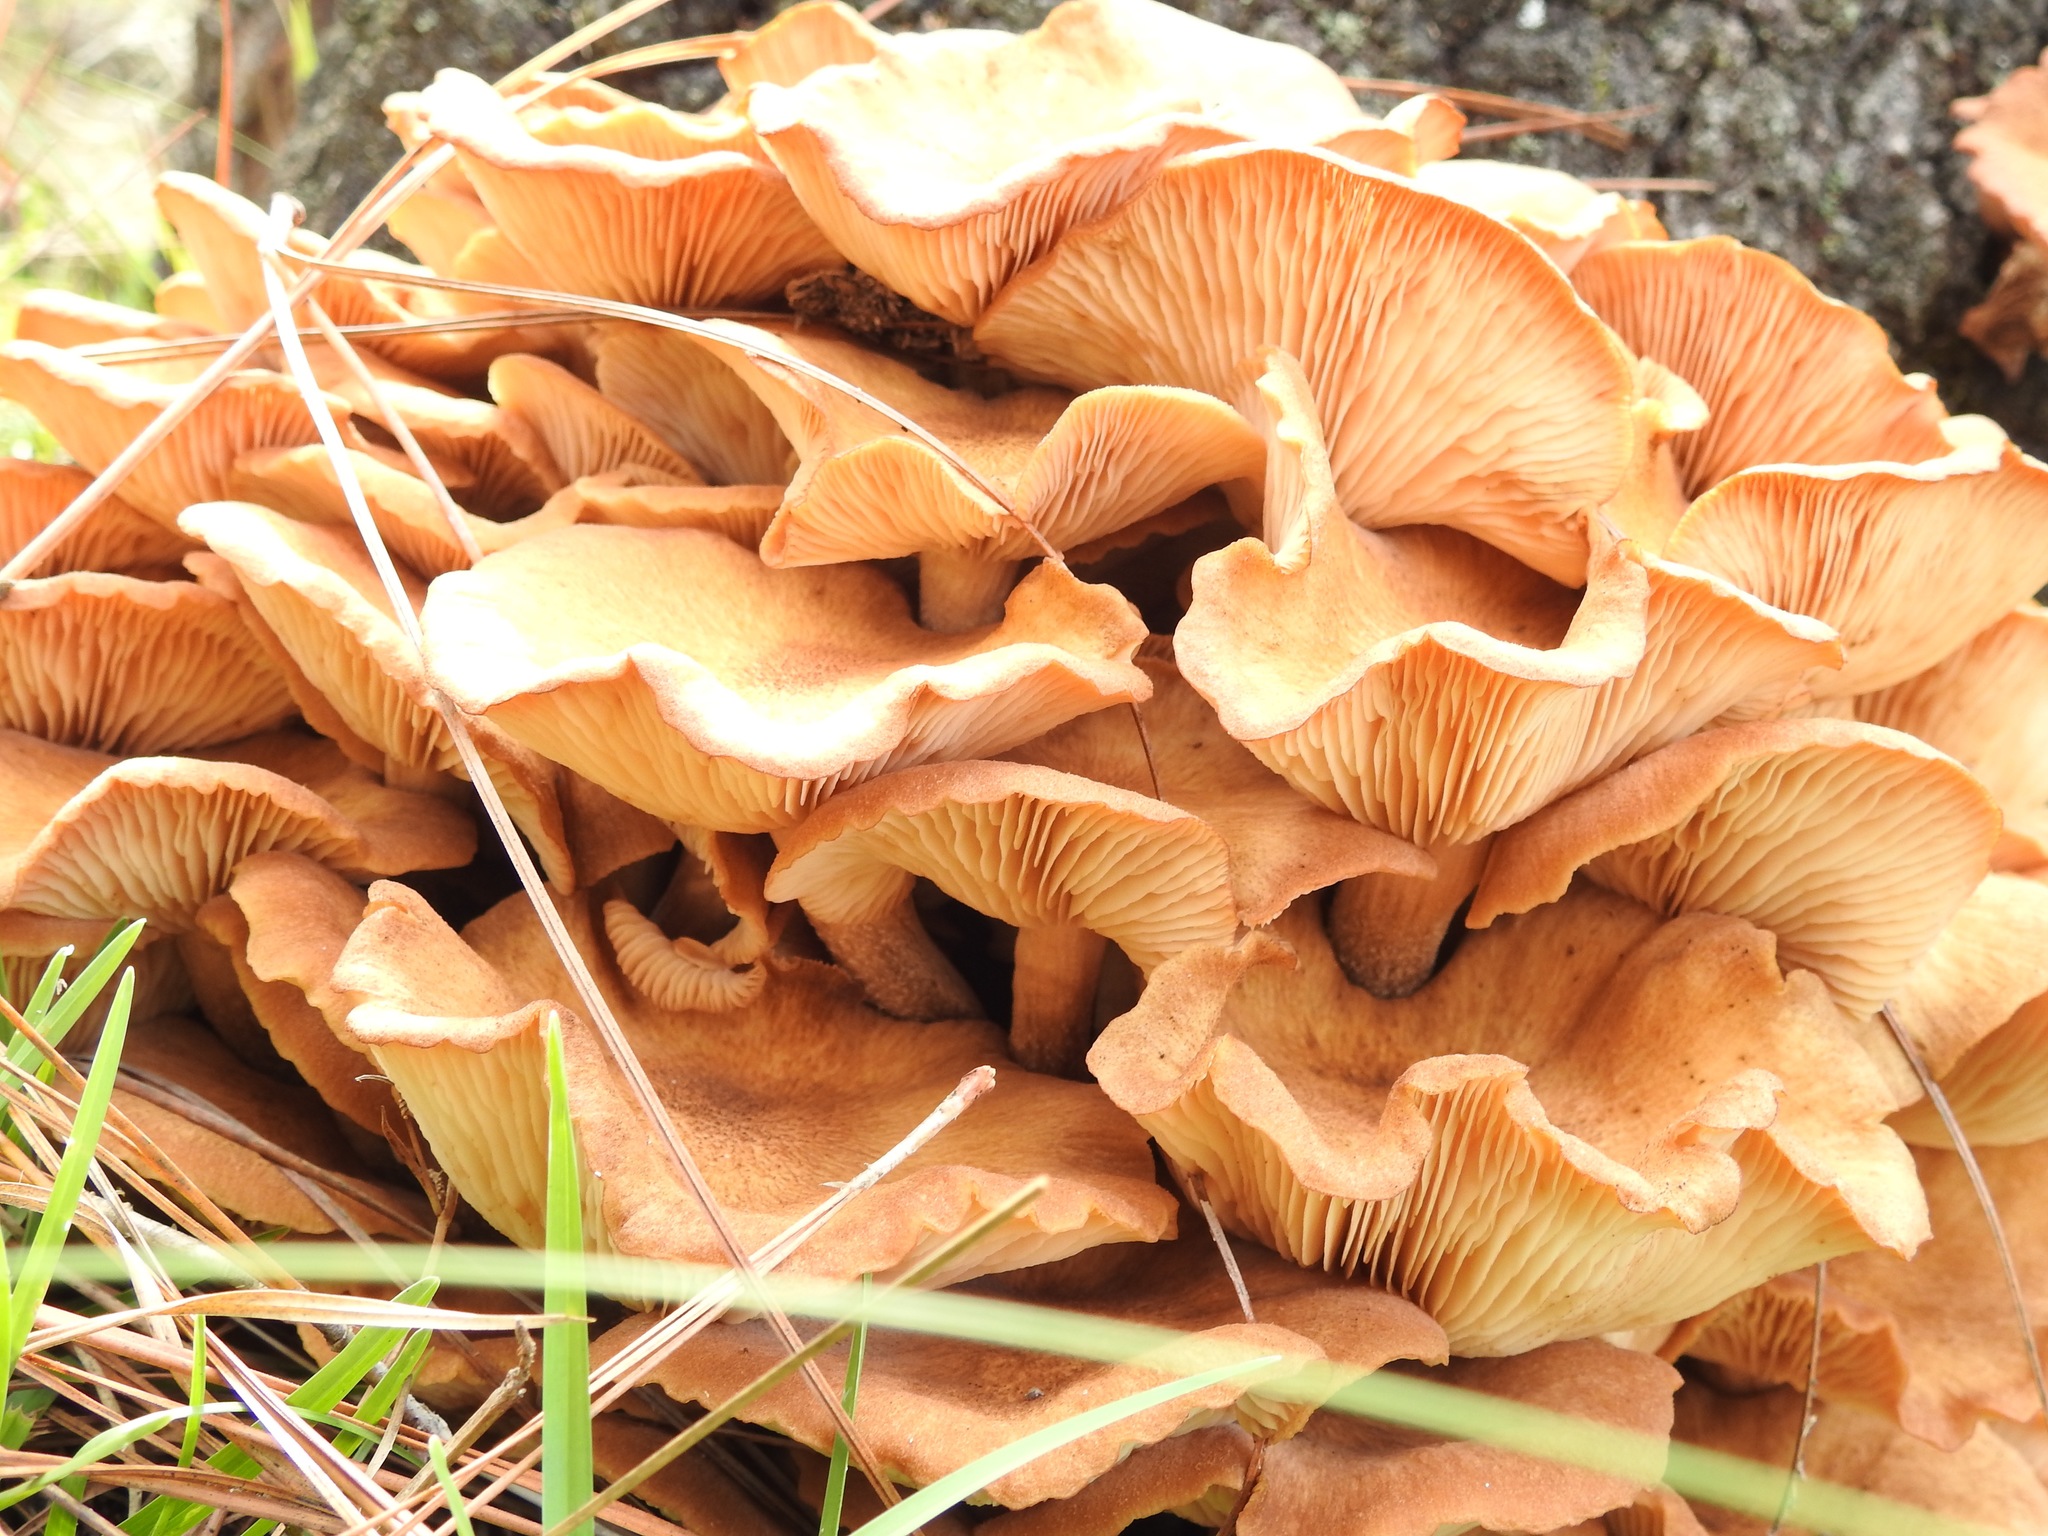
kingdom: Fungi
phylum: Basidiomycota
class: Agaricomycetes
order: Agaricales
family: Physalacriaceae
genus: Desarmillaria
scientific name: Desarmillaria caespitosa
